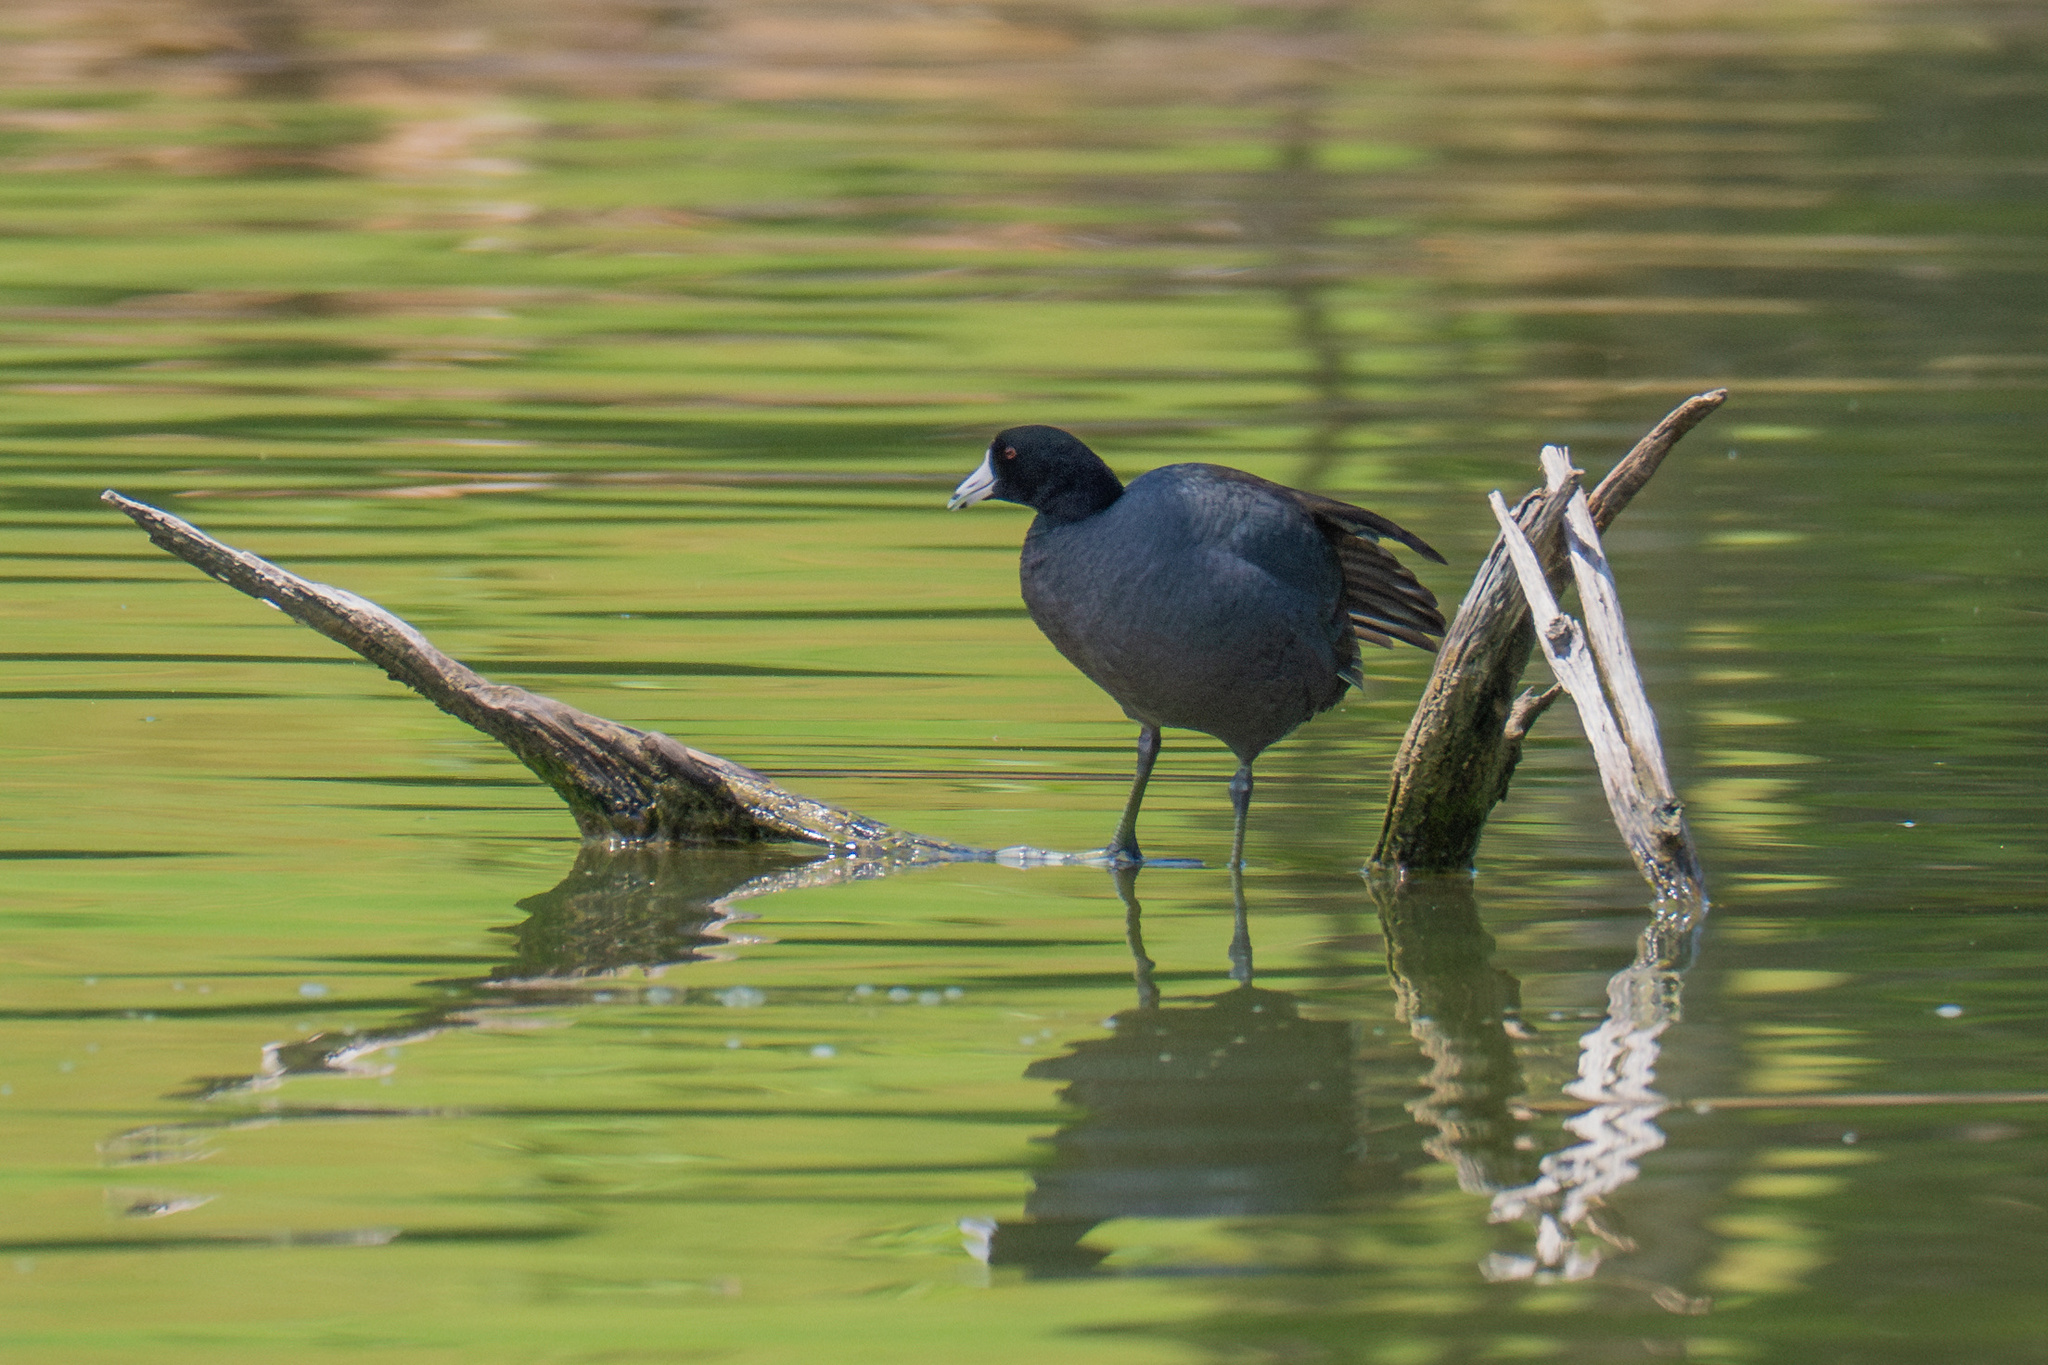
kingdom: Animalia
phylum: Chordata
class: Aves
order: Gruiformes
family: Rallidae
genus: Fulica
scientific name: Fulica americana
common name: American coot
